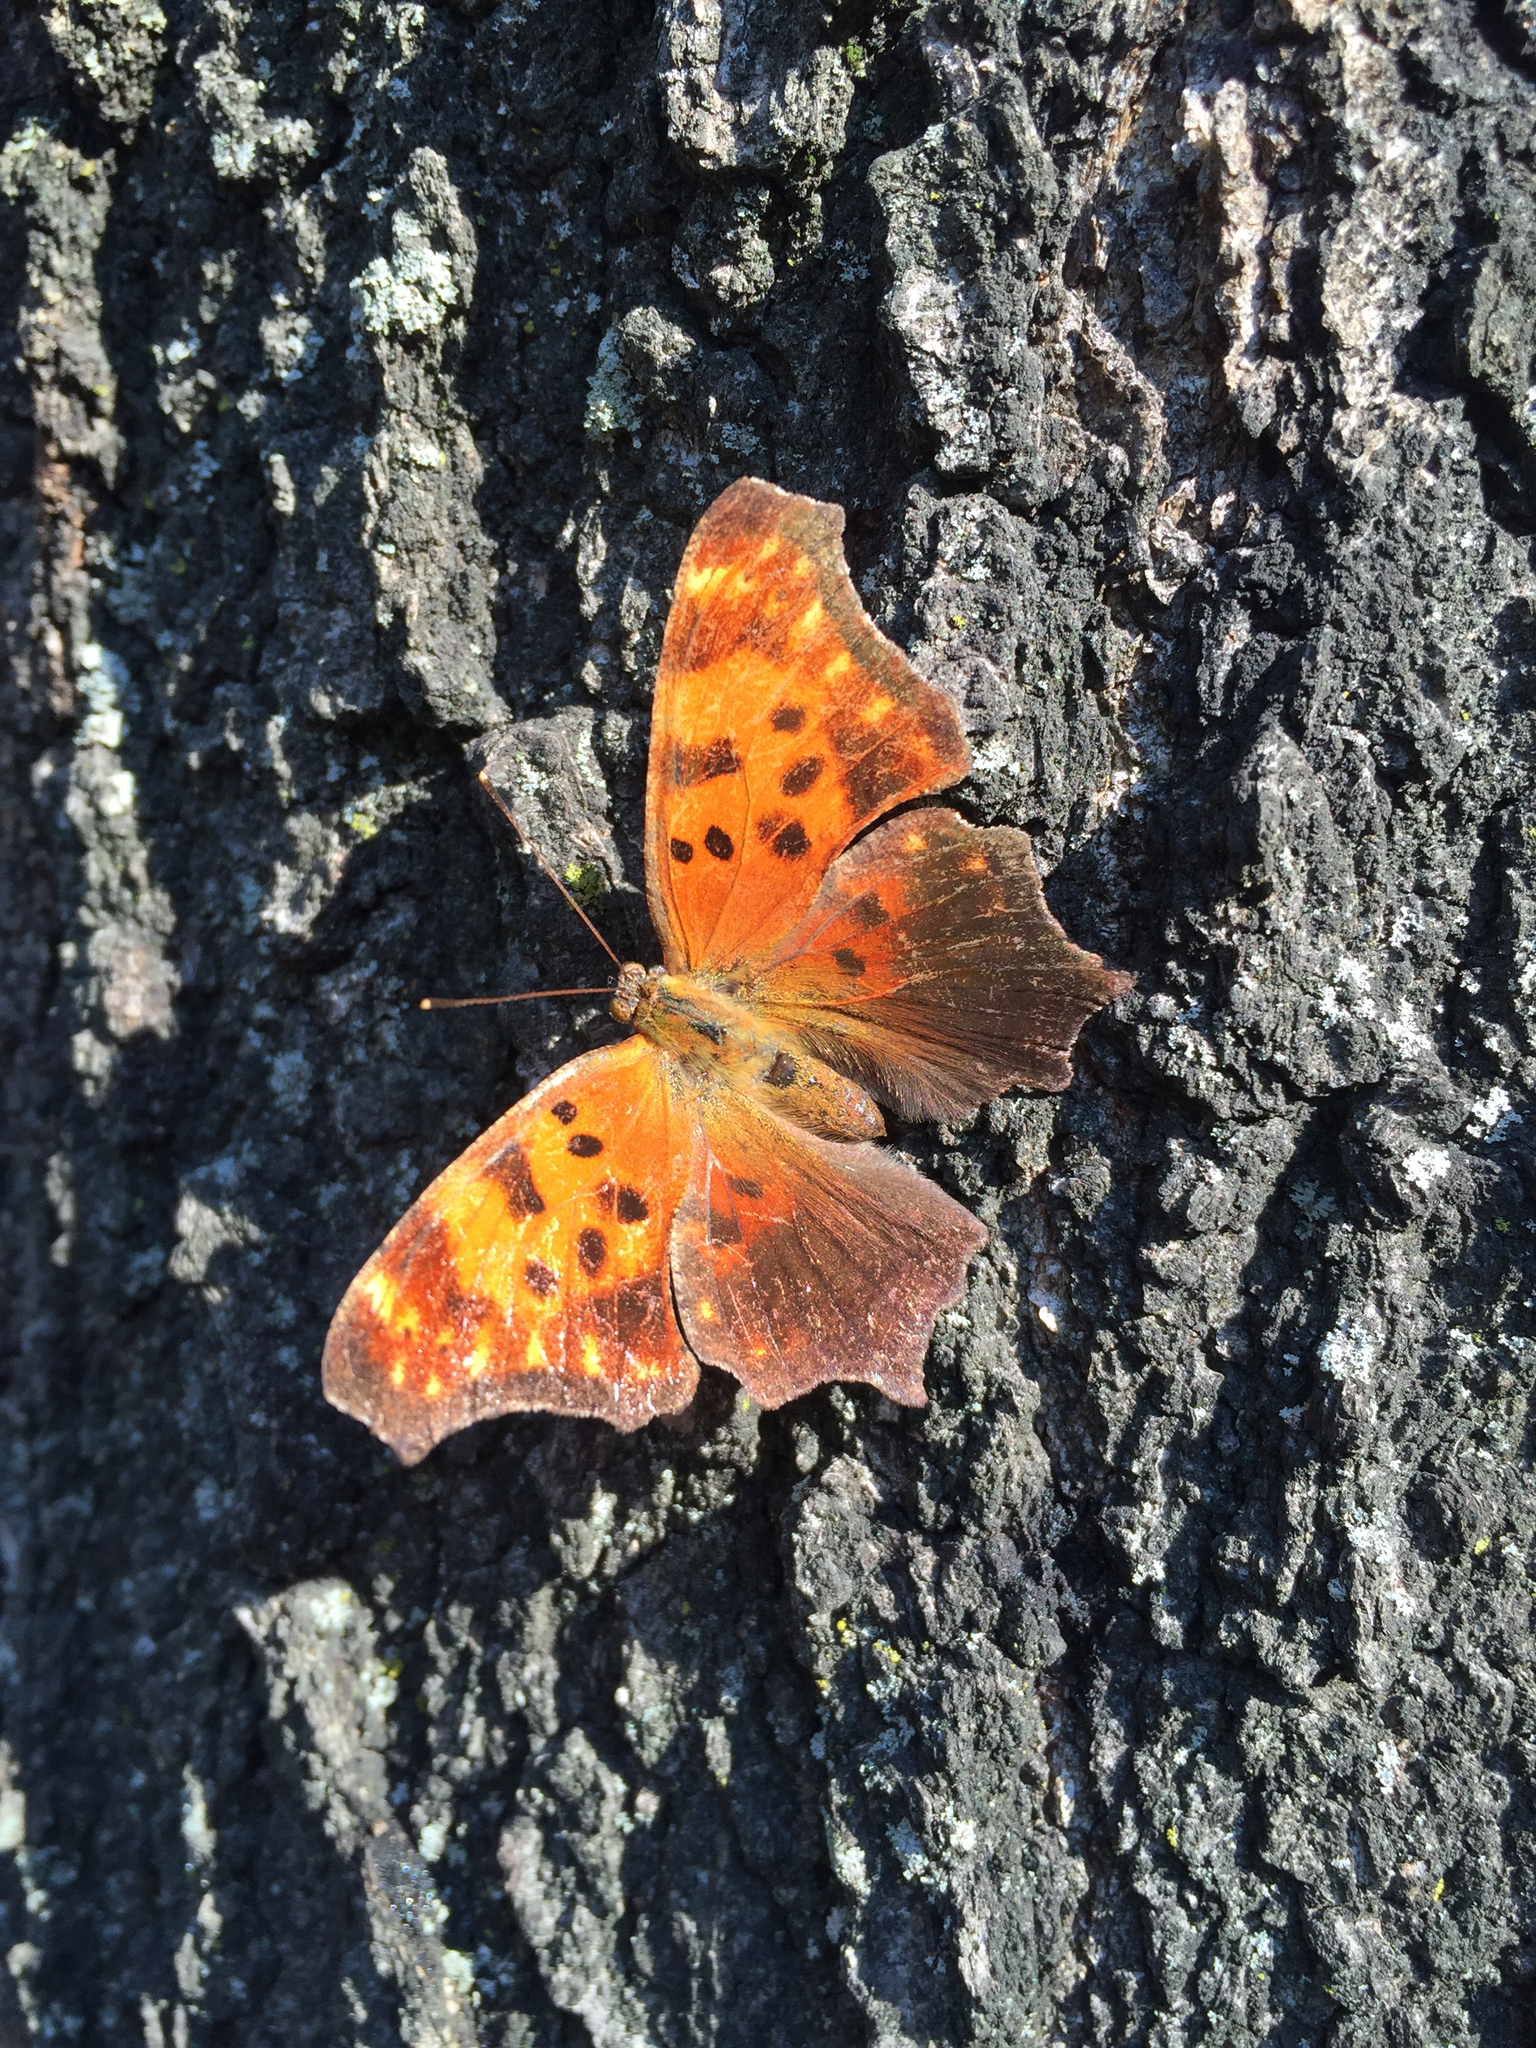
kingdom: Animalia
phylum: Arthropoda
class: Insecta
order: Lepidoptera
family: Nymphalidae
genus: Polygonia
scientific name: Polygonia interrogationis
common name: Question mark
